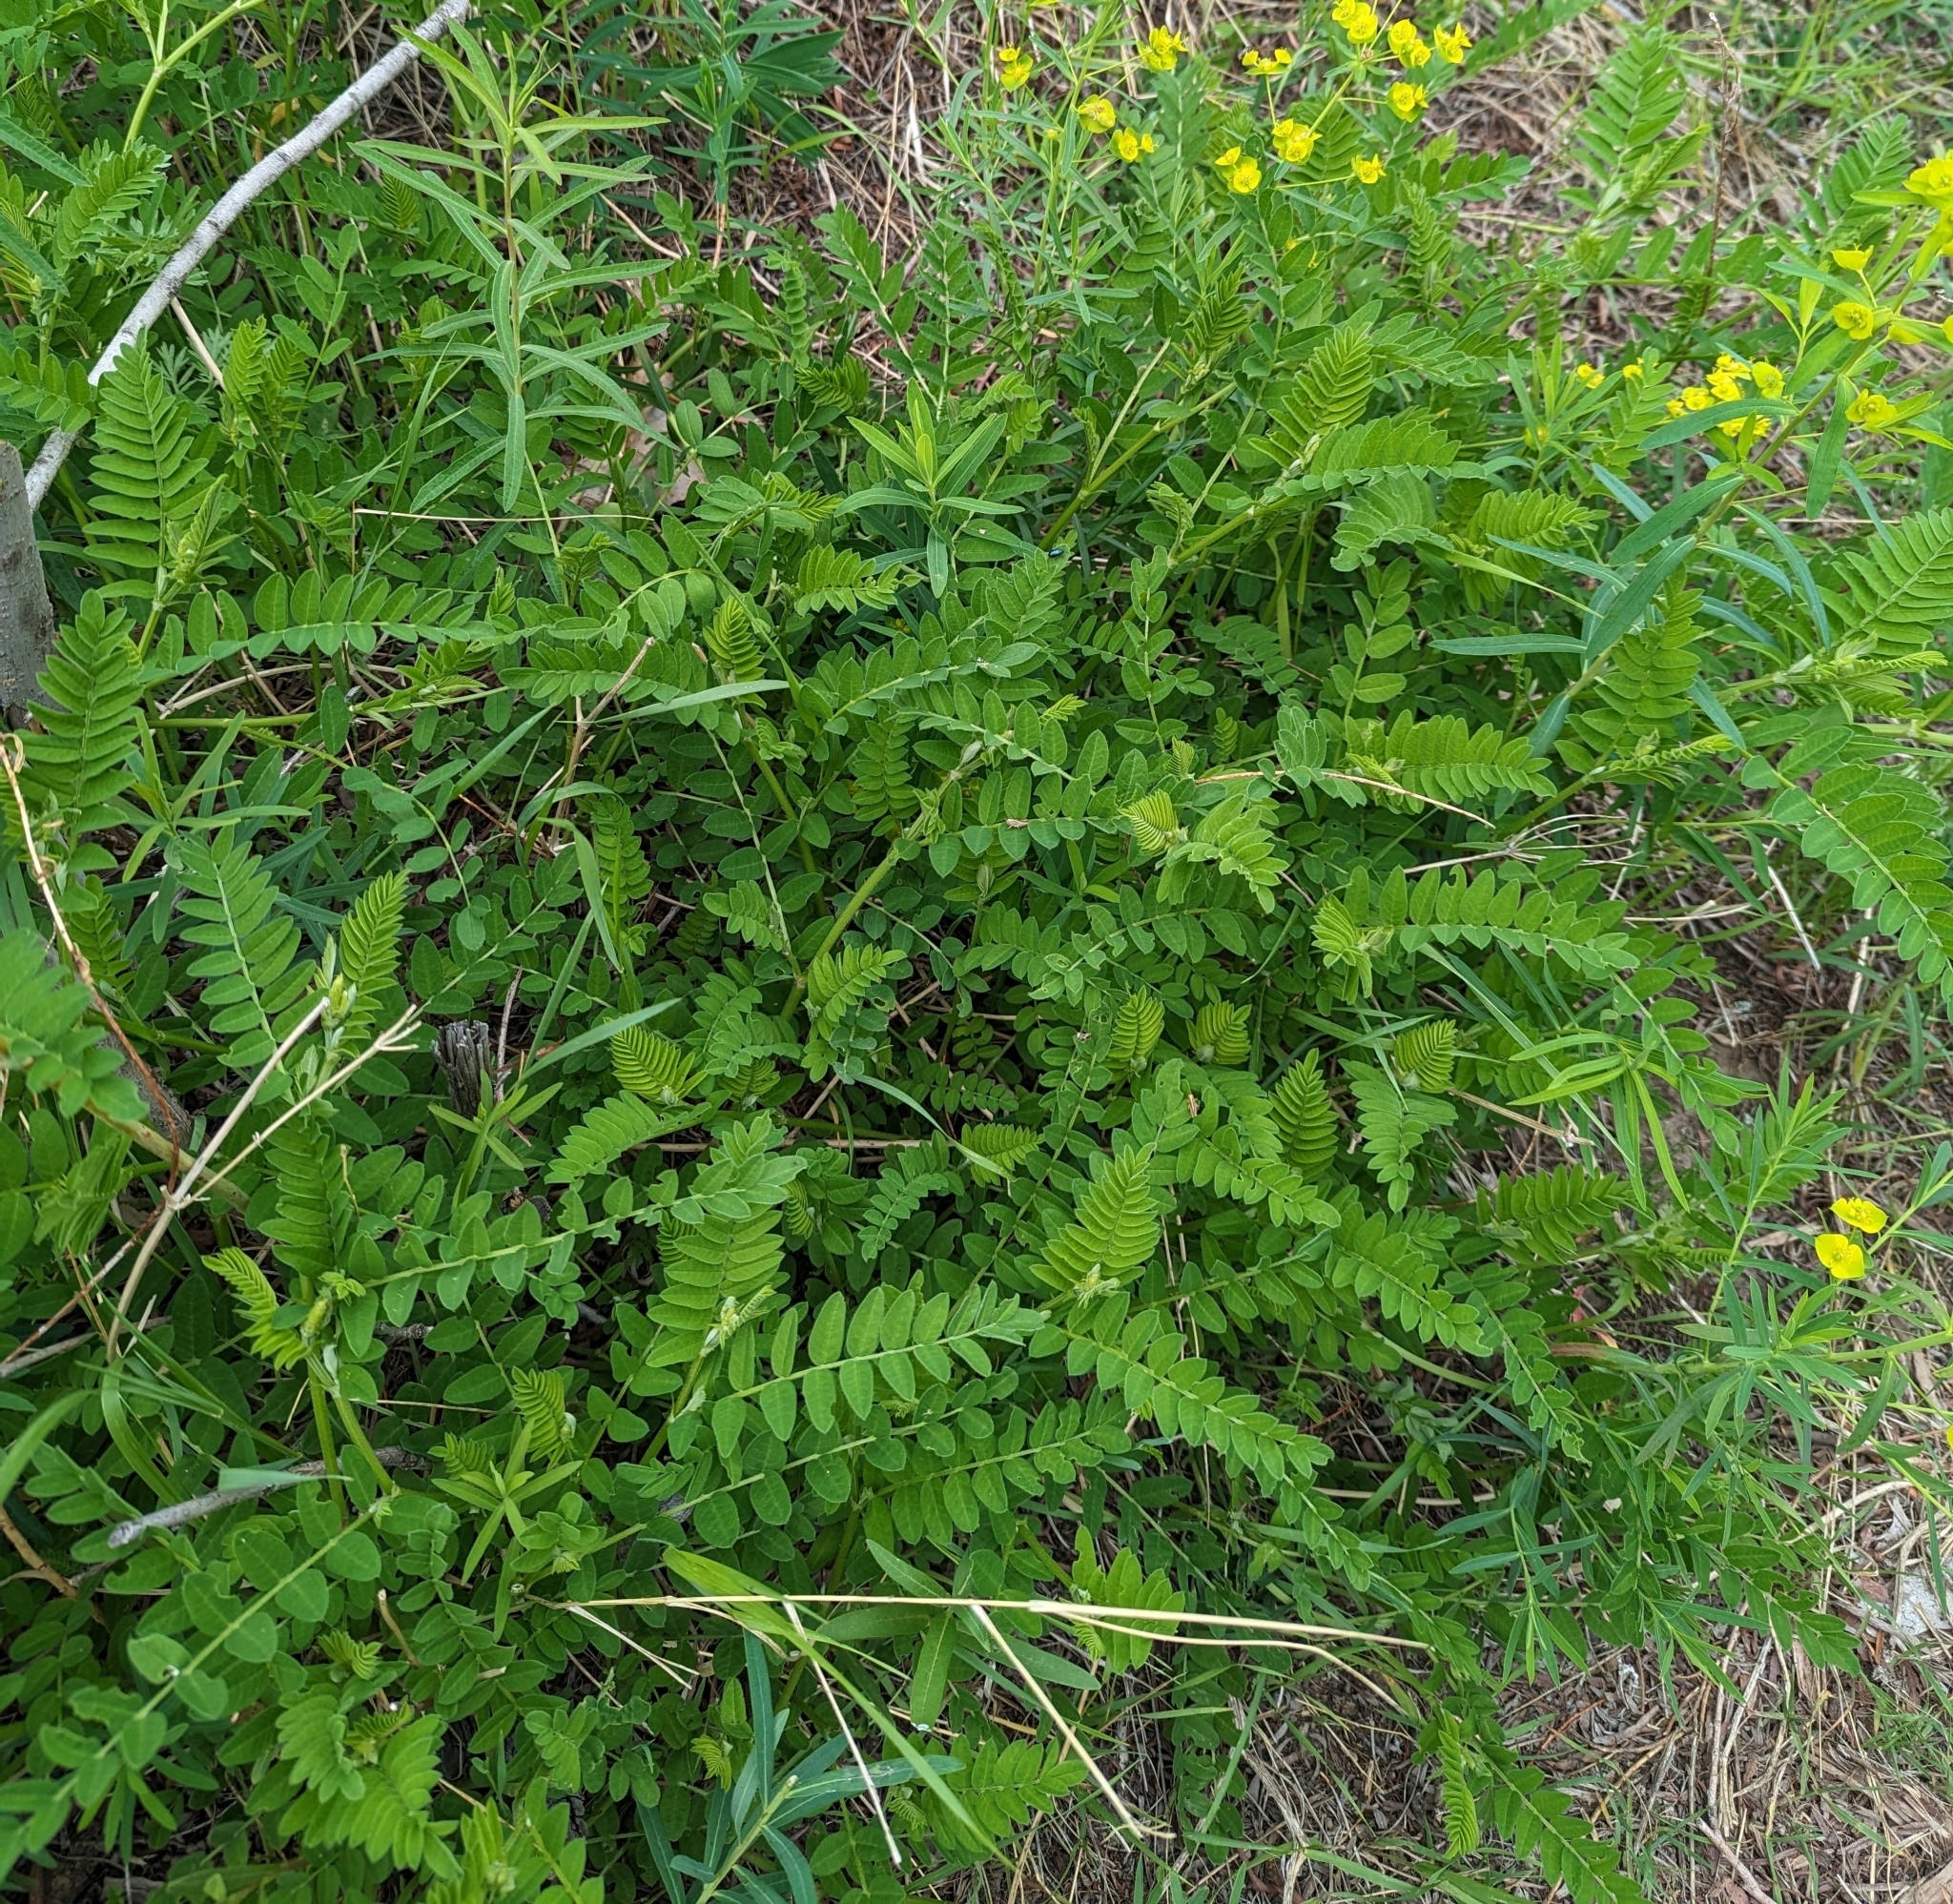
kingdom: Plantae
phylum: Tracheophyta
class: Magnoliopsida
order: Fabales
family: Fabaceae
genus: Astragalus
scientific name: Astragalus cicer
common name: Chick-pea milk-vetch
